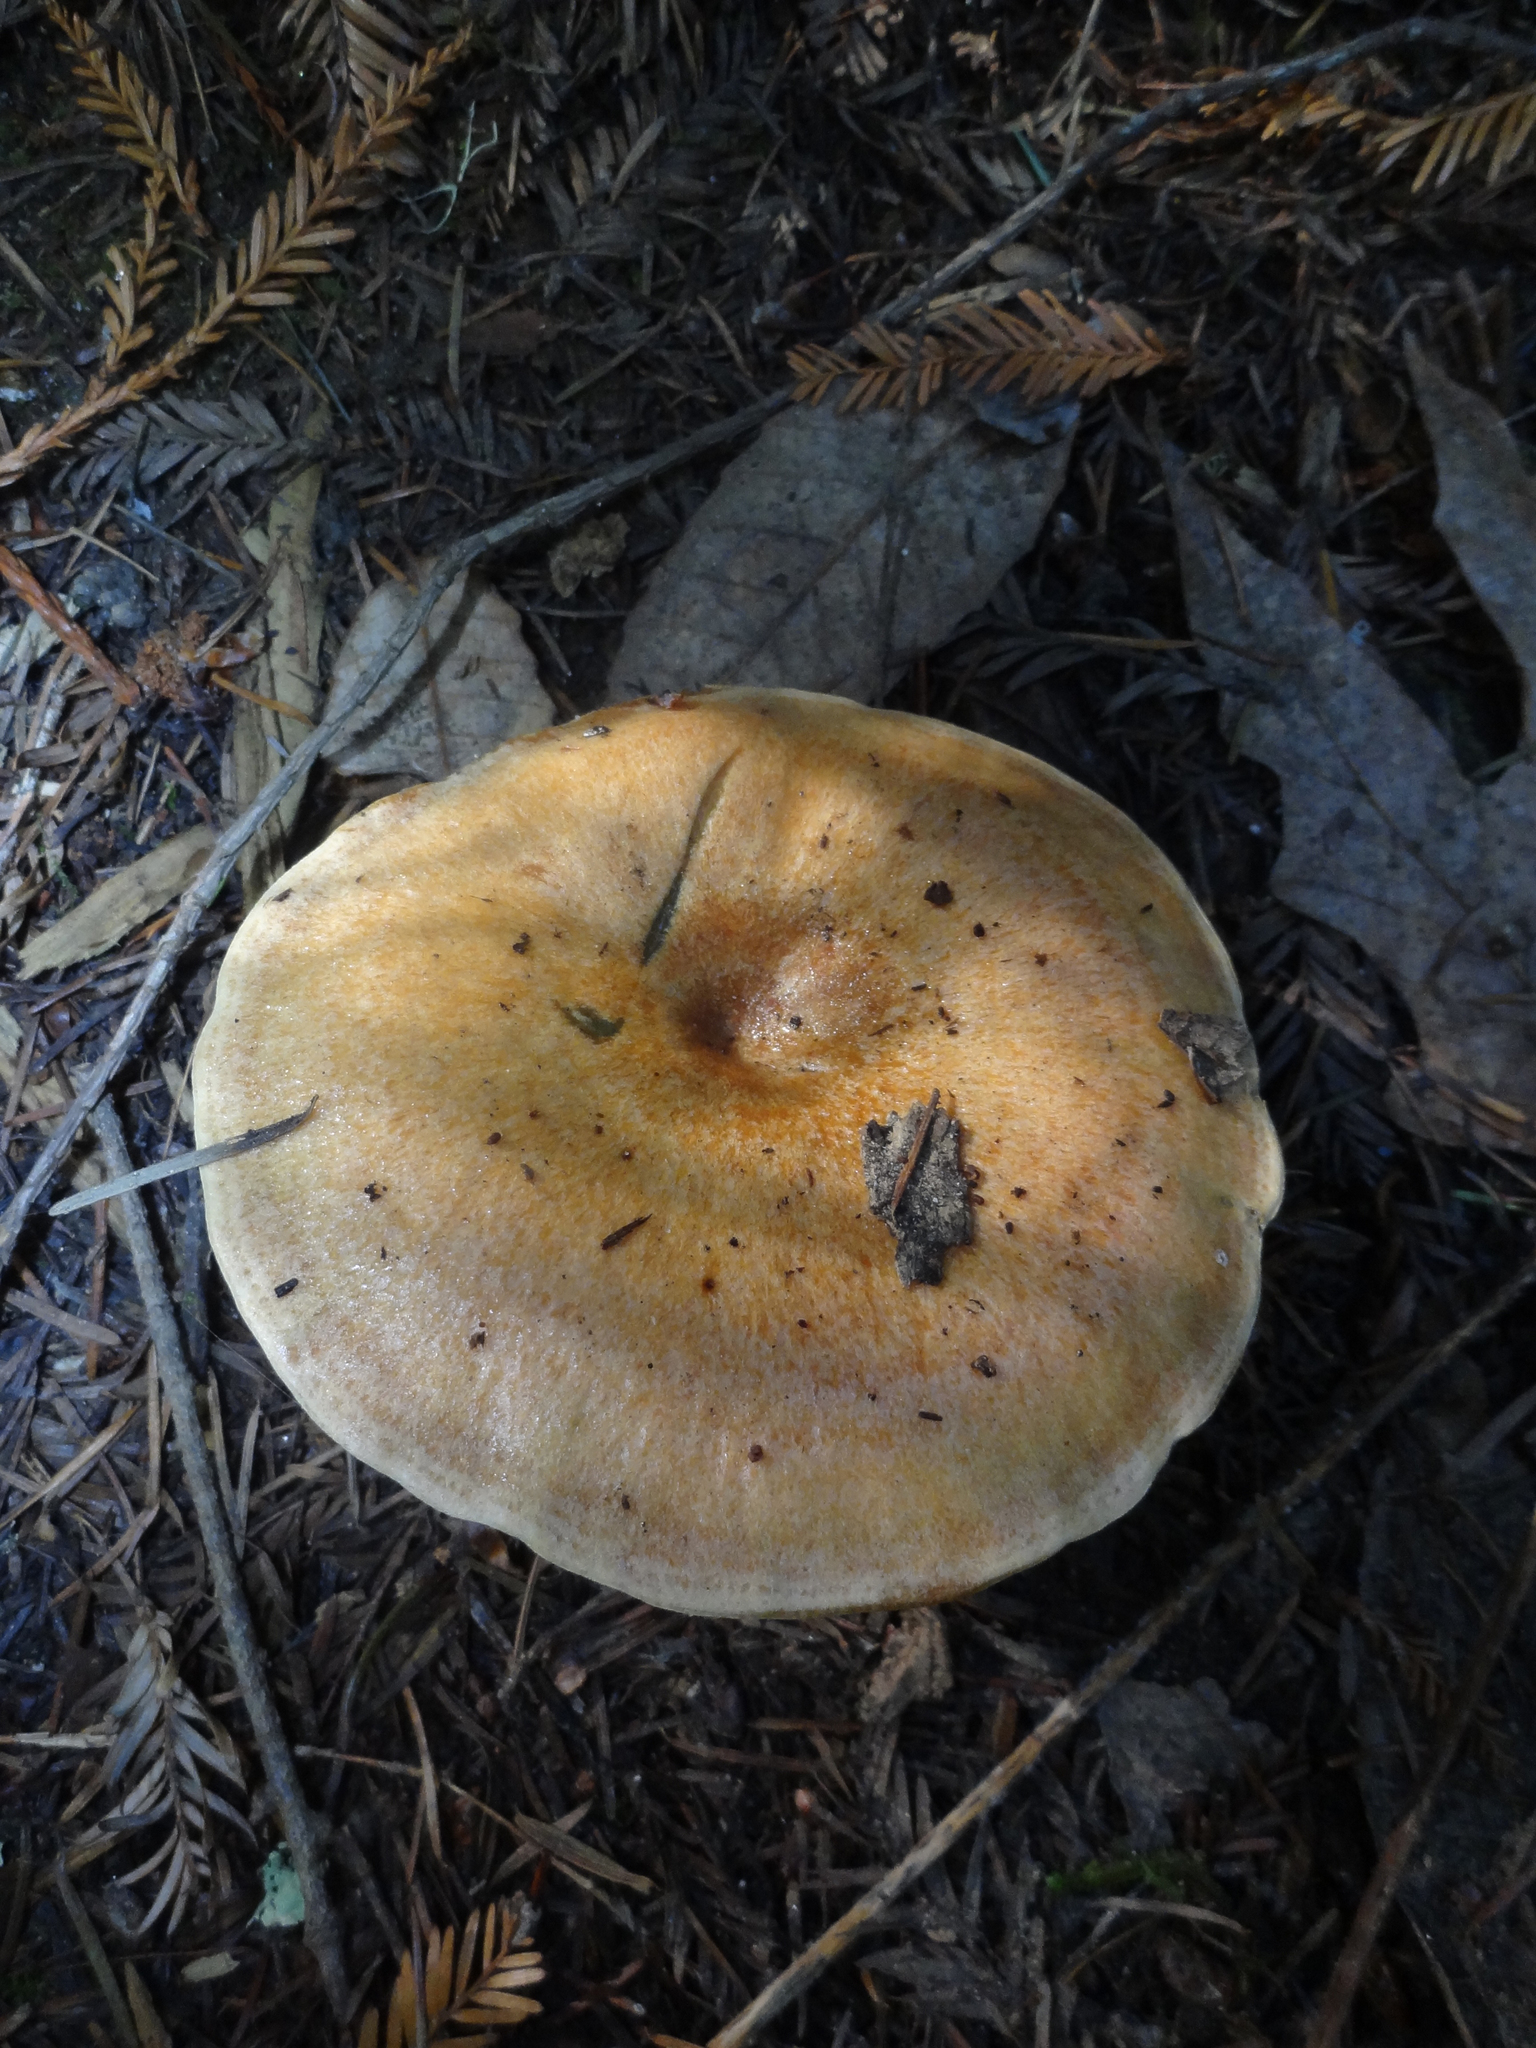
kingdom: Fungi
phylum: Basidiomycota
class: Agaricomycetes
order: Russulales
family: Russulaceae
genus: Lactarius
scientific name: Lactarius rubrilacteus
